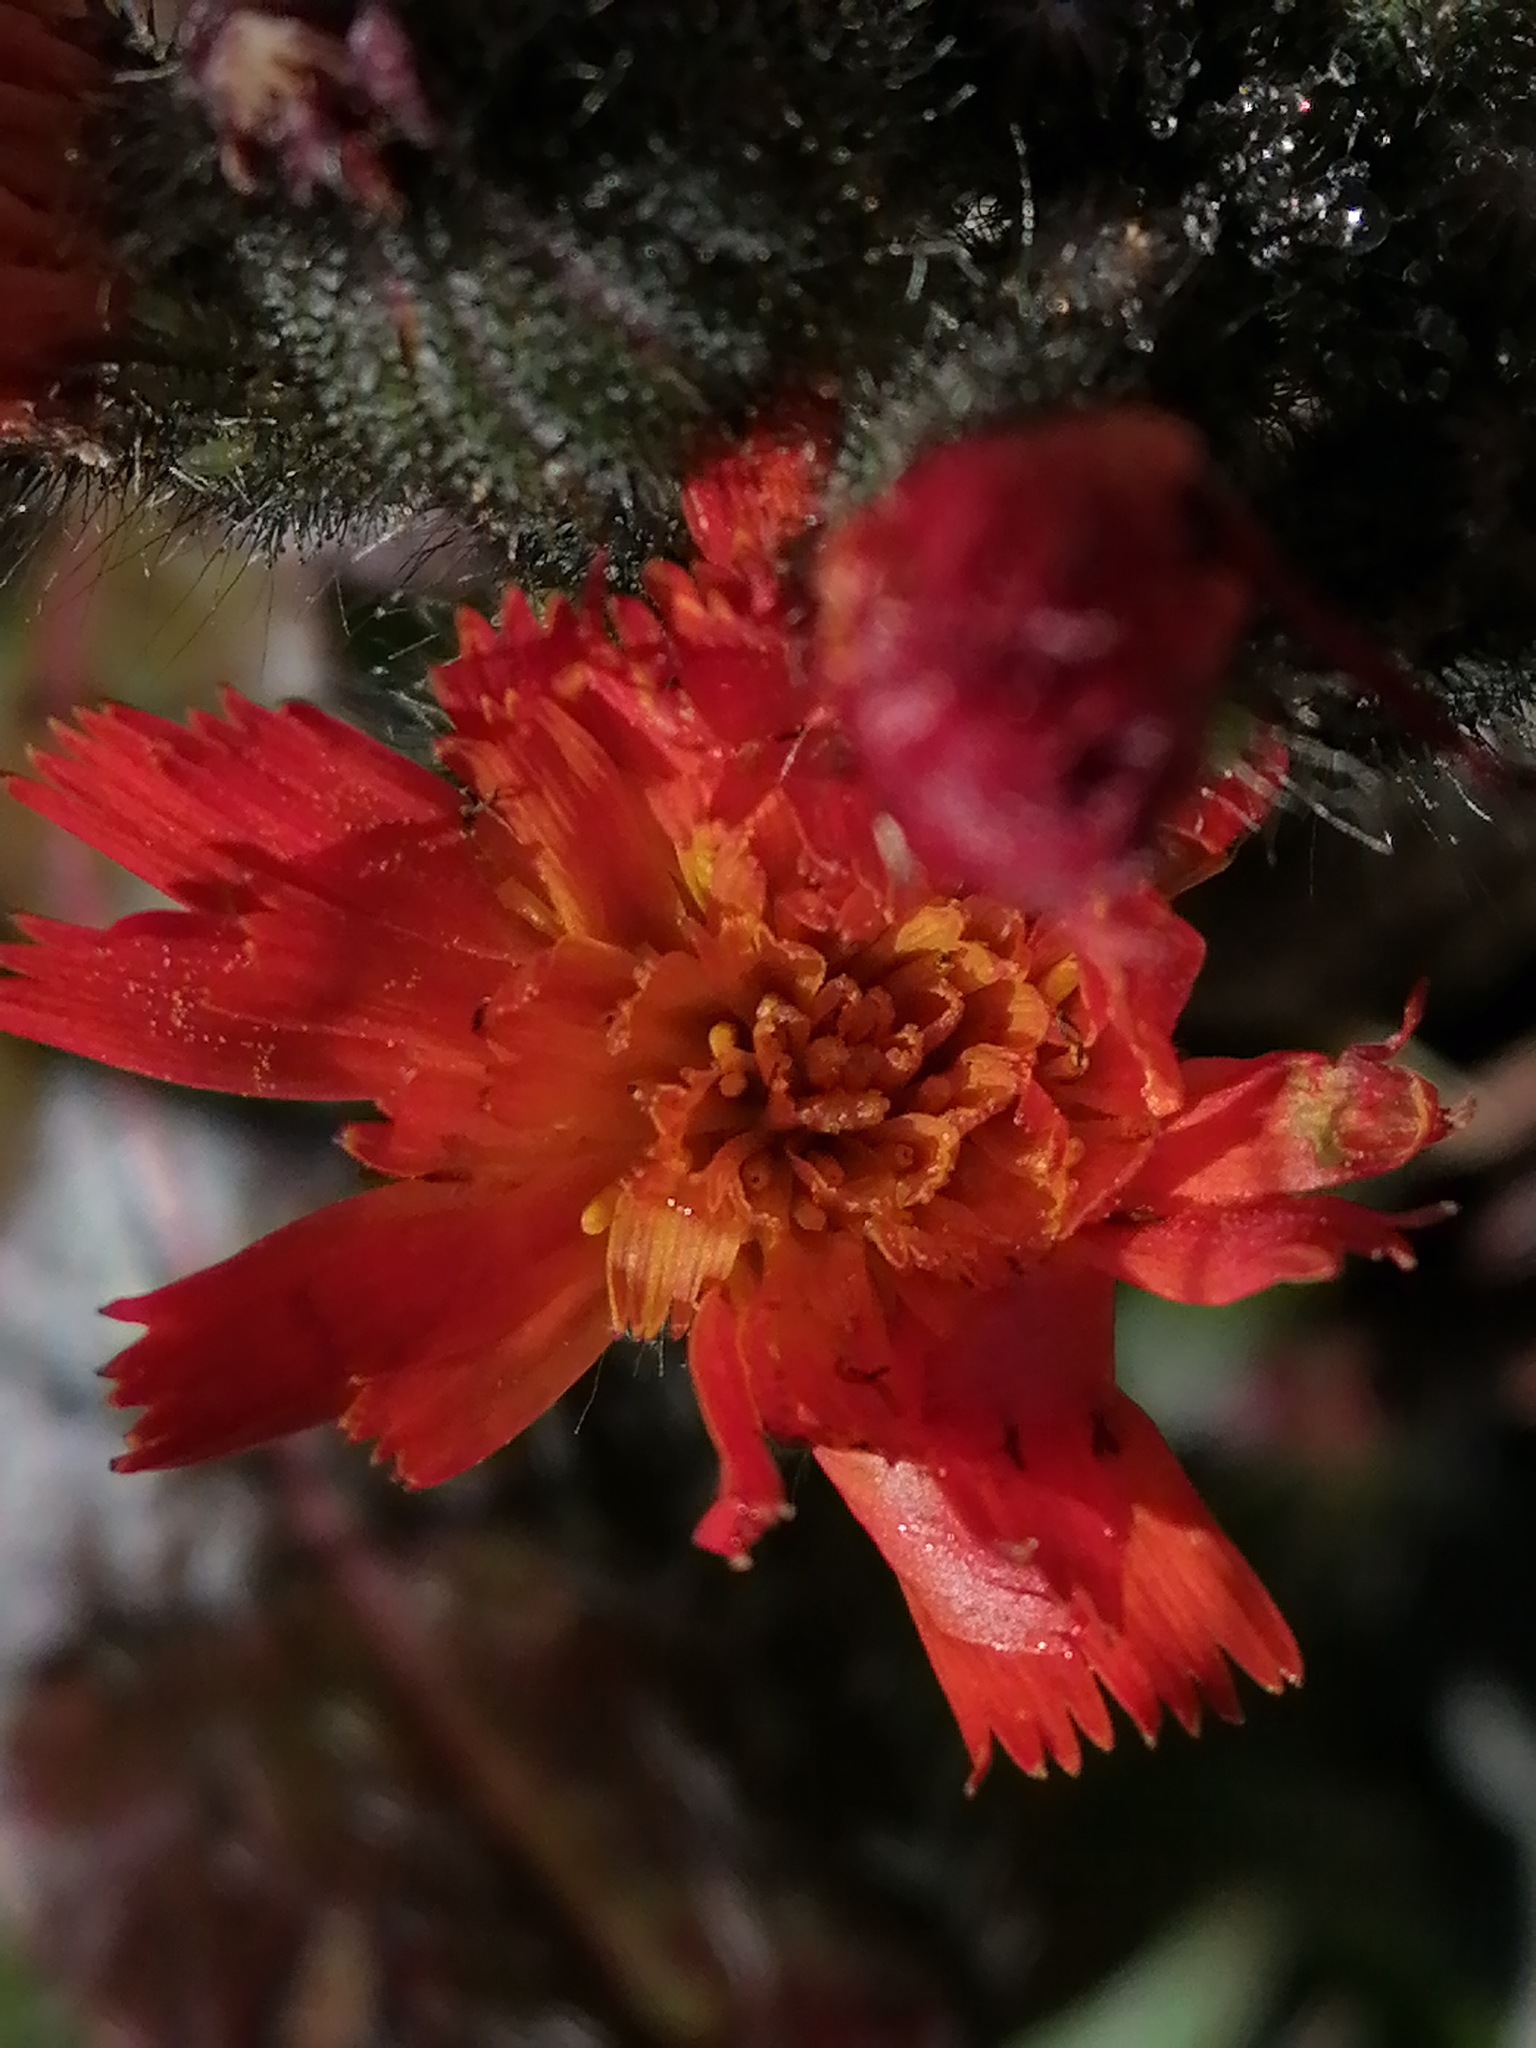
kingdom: Plantae
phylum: Tracheophyta
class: Magnoliopsida
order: Asterales
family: Asteraceae
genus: Pilosella
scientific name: Pilosella aurantiaca
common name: Fox-and-cubs
